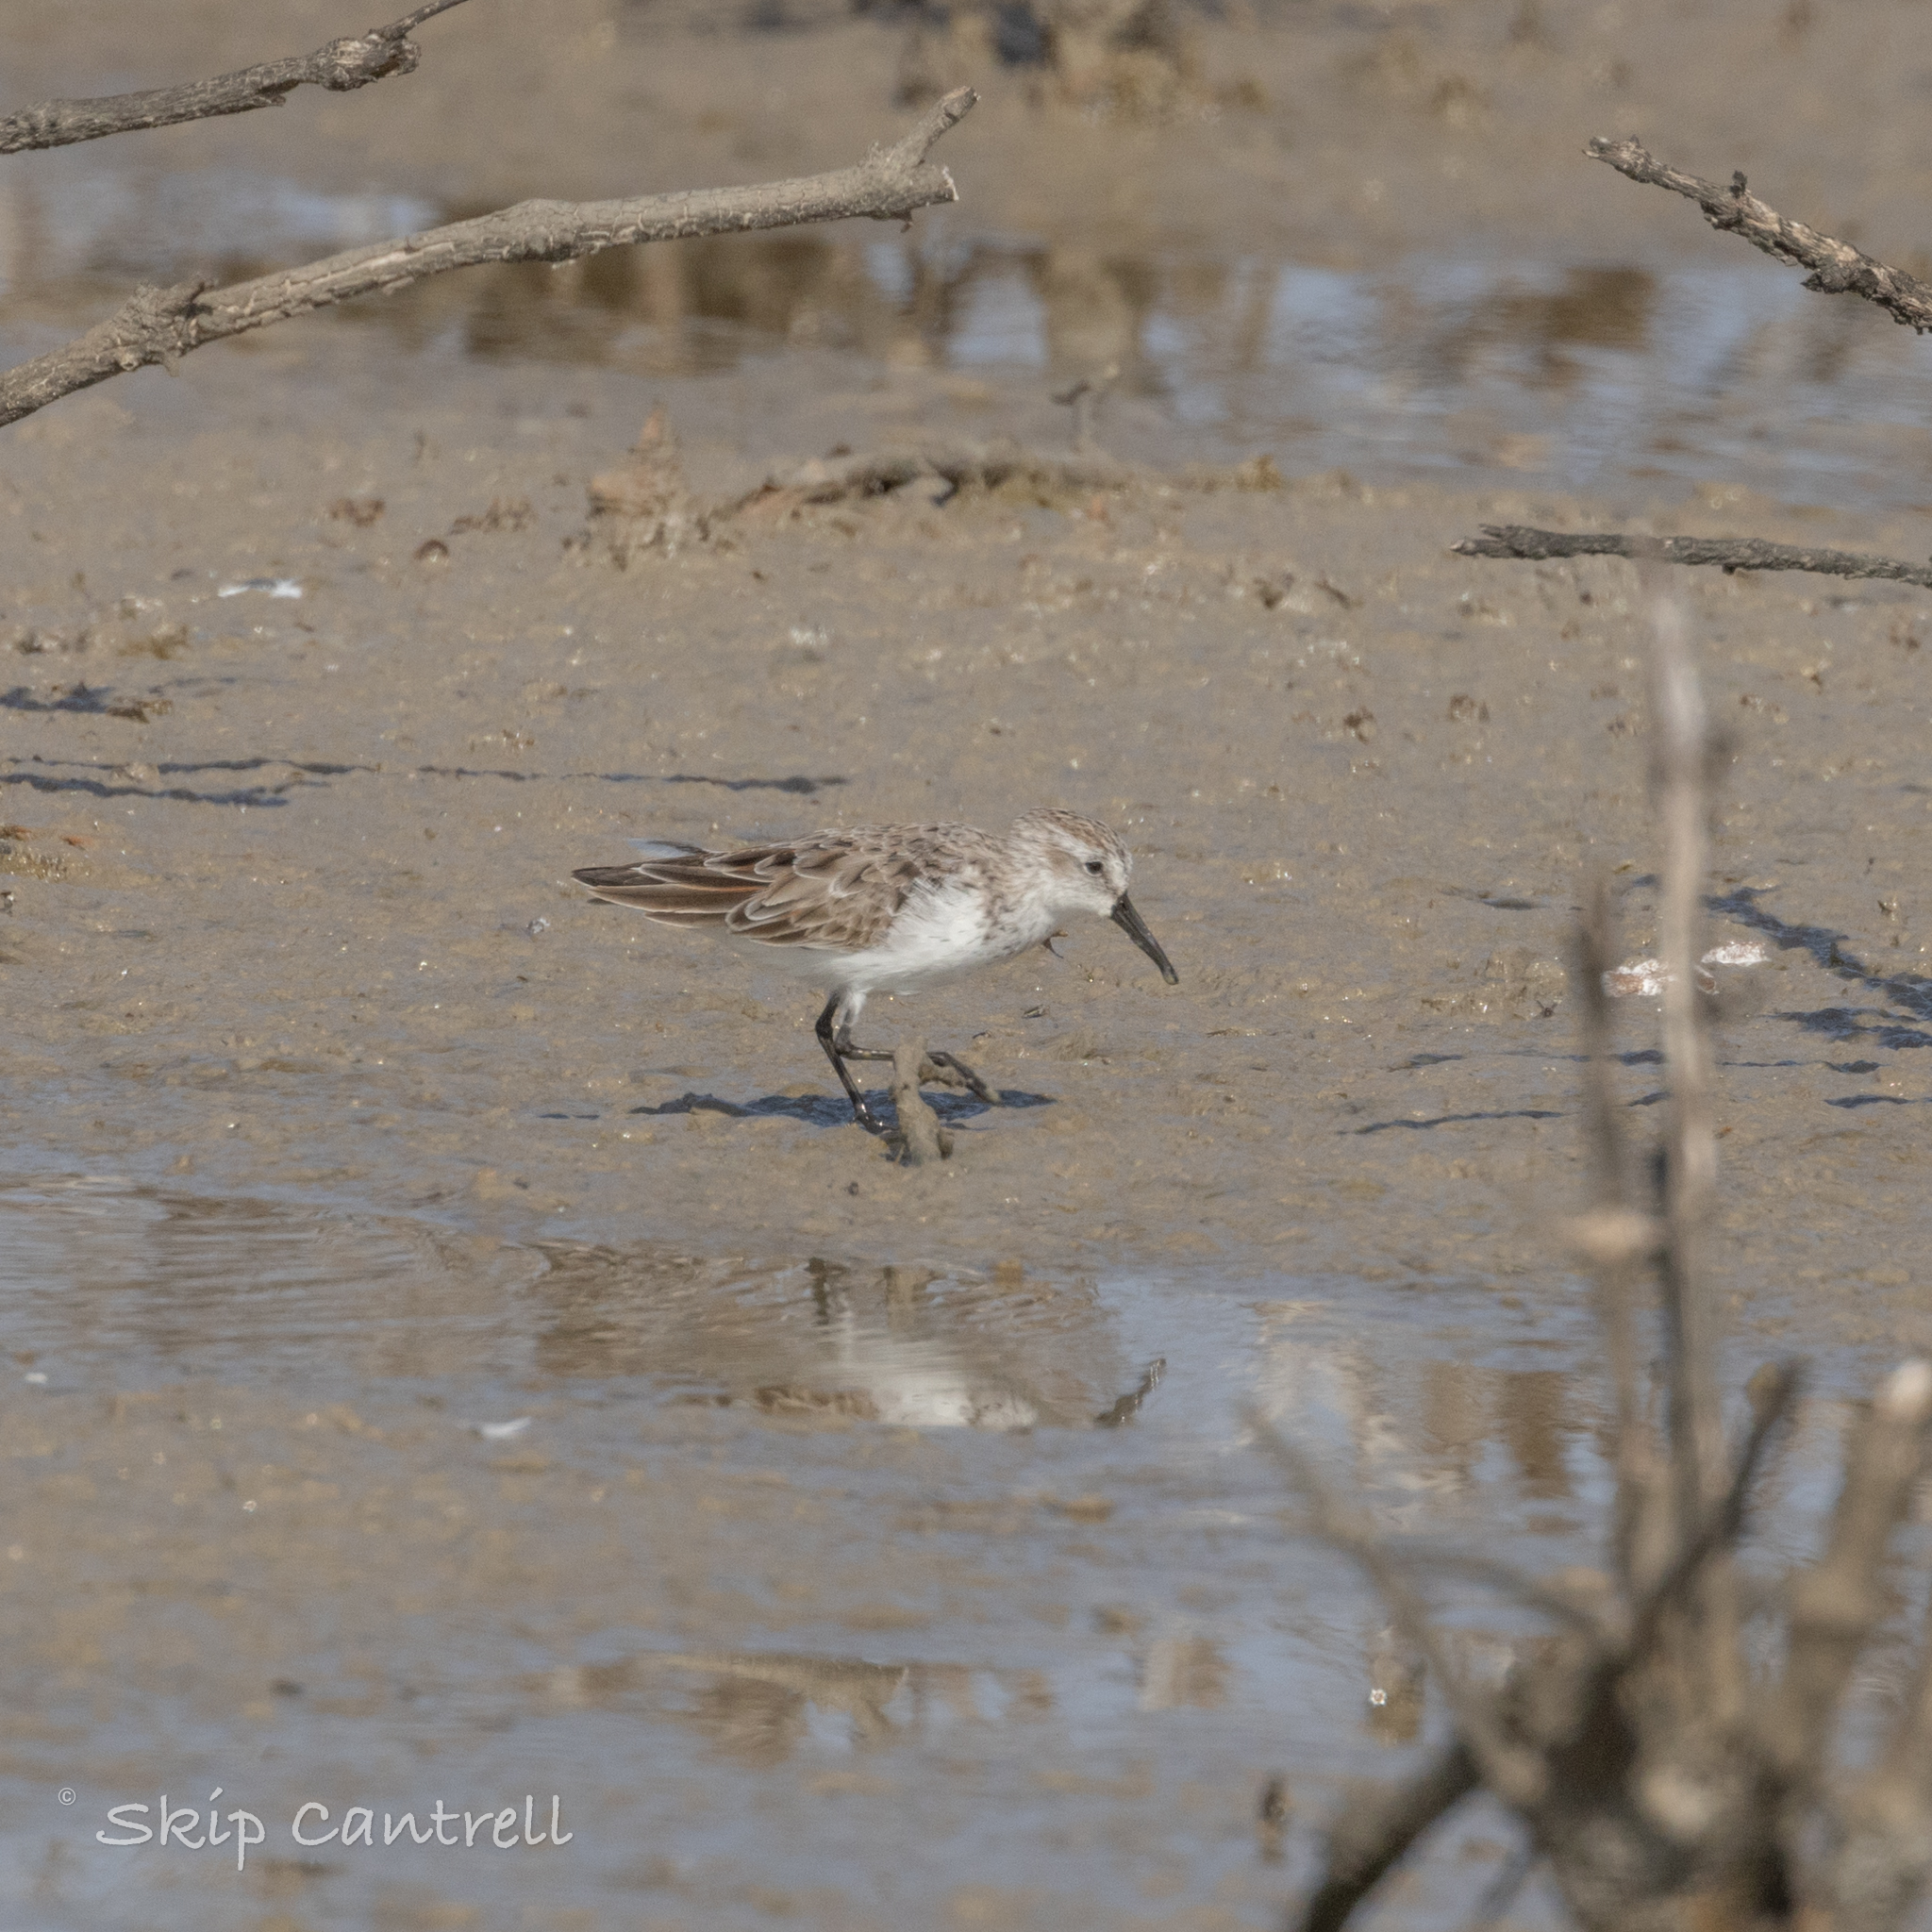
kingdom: Animalia
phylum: Chordata
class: Aves
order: Charadriiformes
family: Scolopacidae
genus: Calidris
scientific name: Calidris mauri
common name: Western sandpiper
